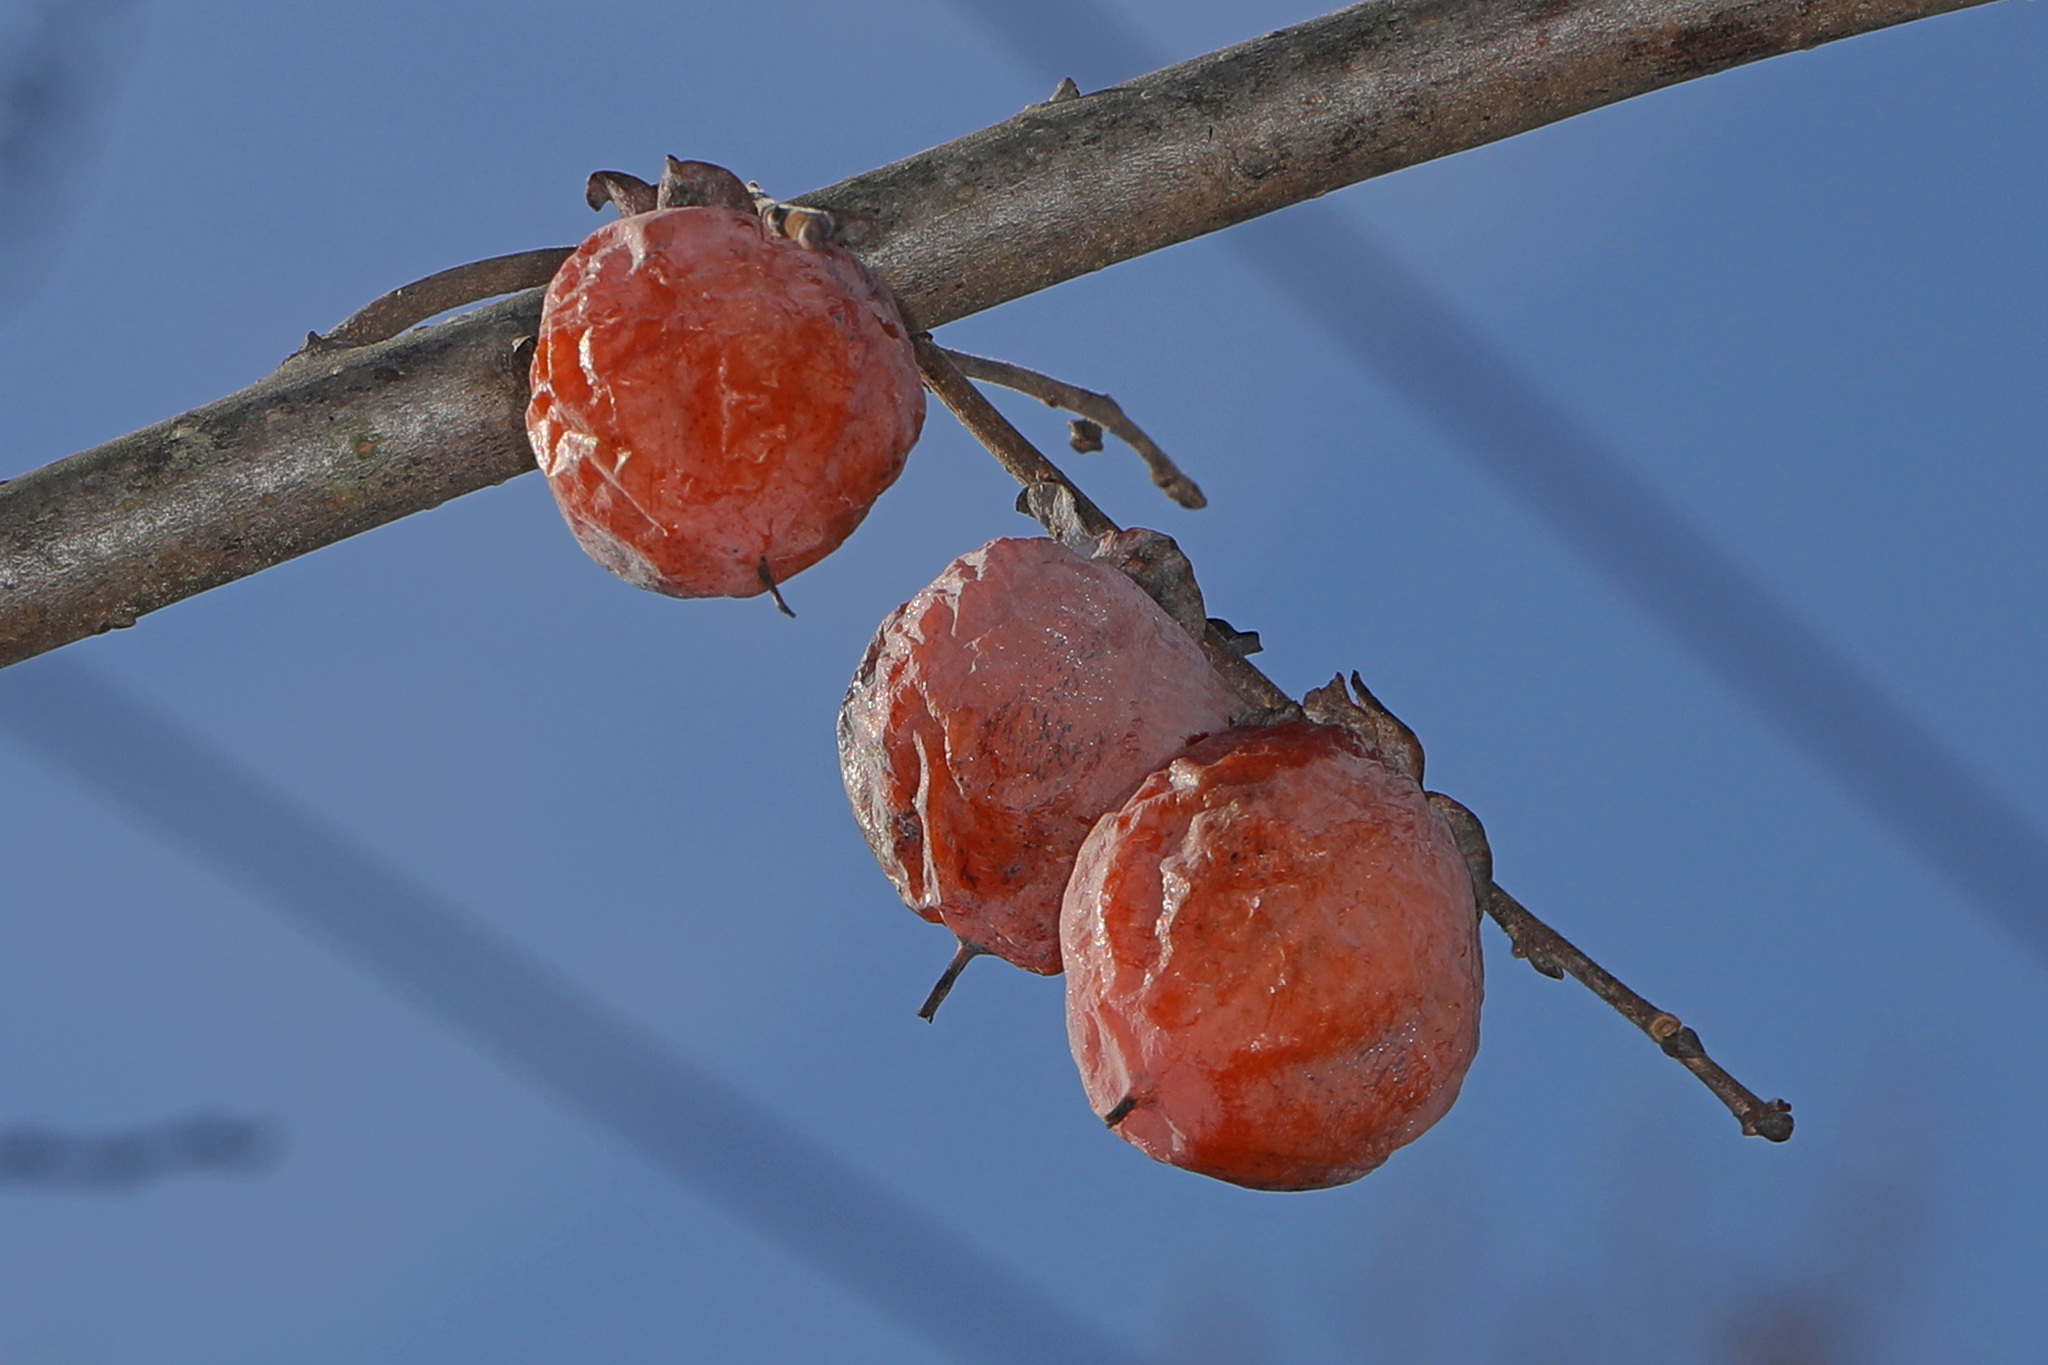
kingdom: Plantae
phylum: Tracheophyta
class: Magnoliopsida
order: Ericales
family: Ebenaceae
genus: Diospyros
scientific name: Diospyros virginiana
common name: Persimmon
